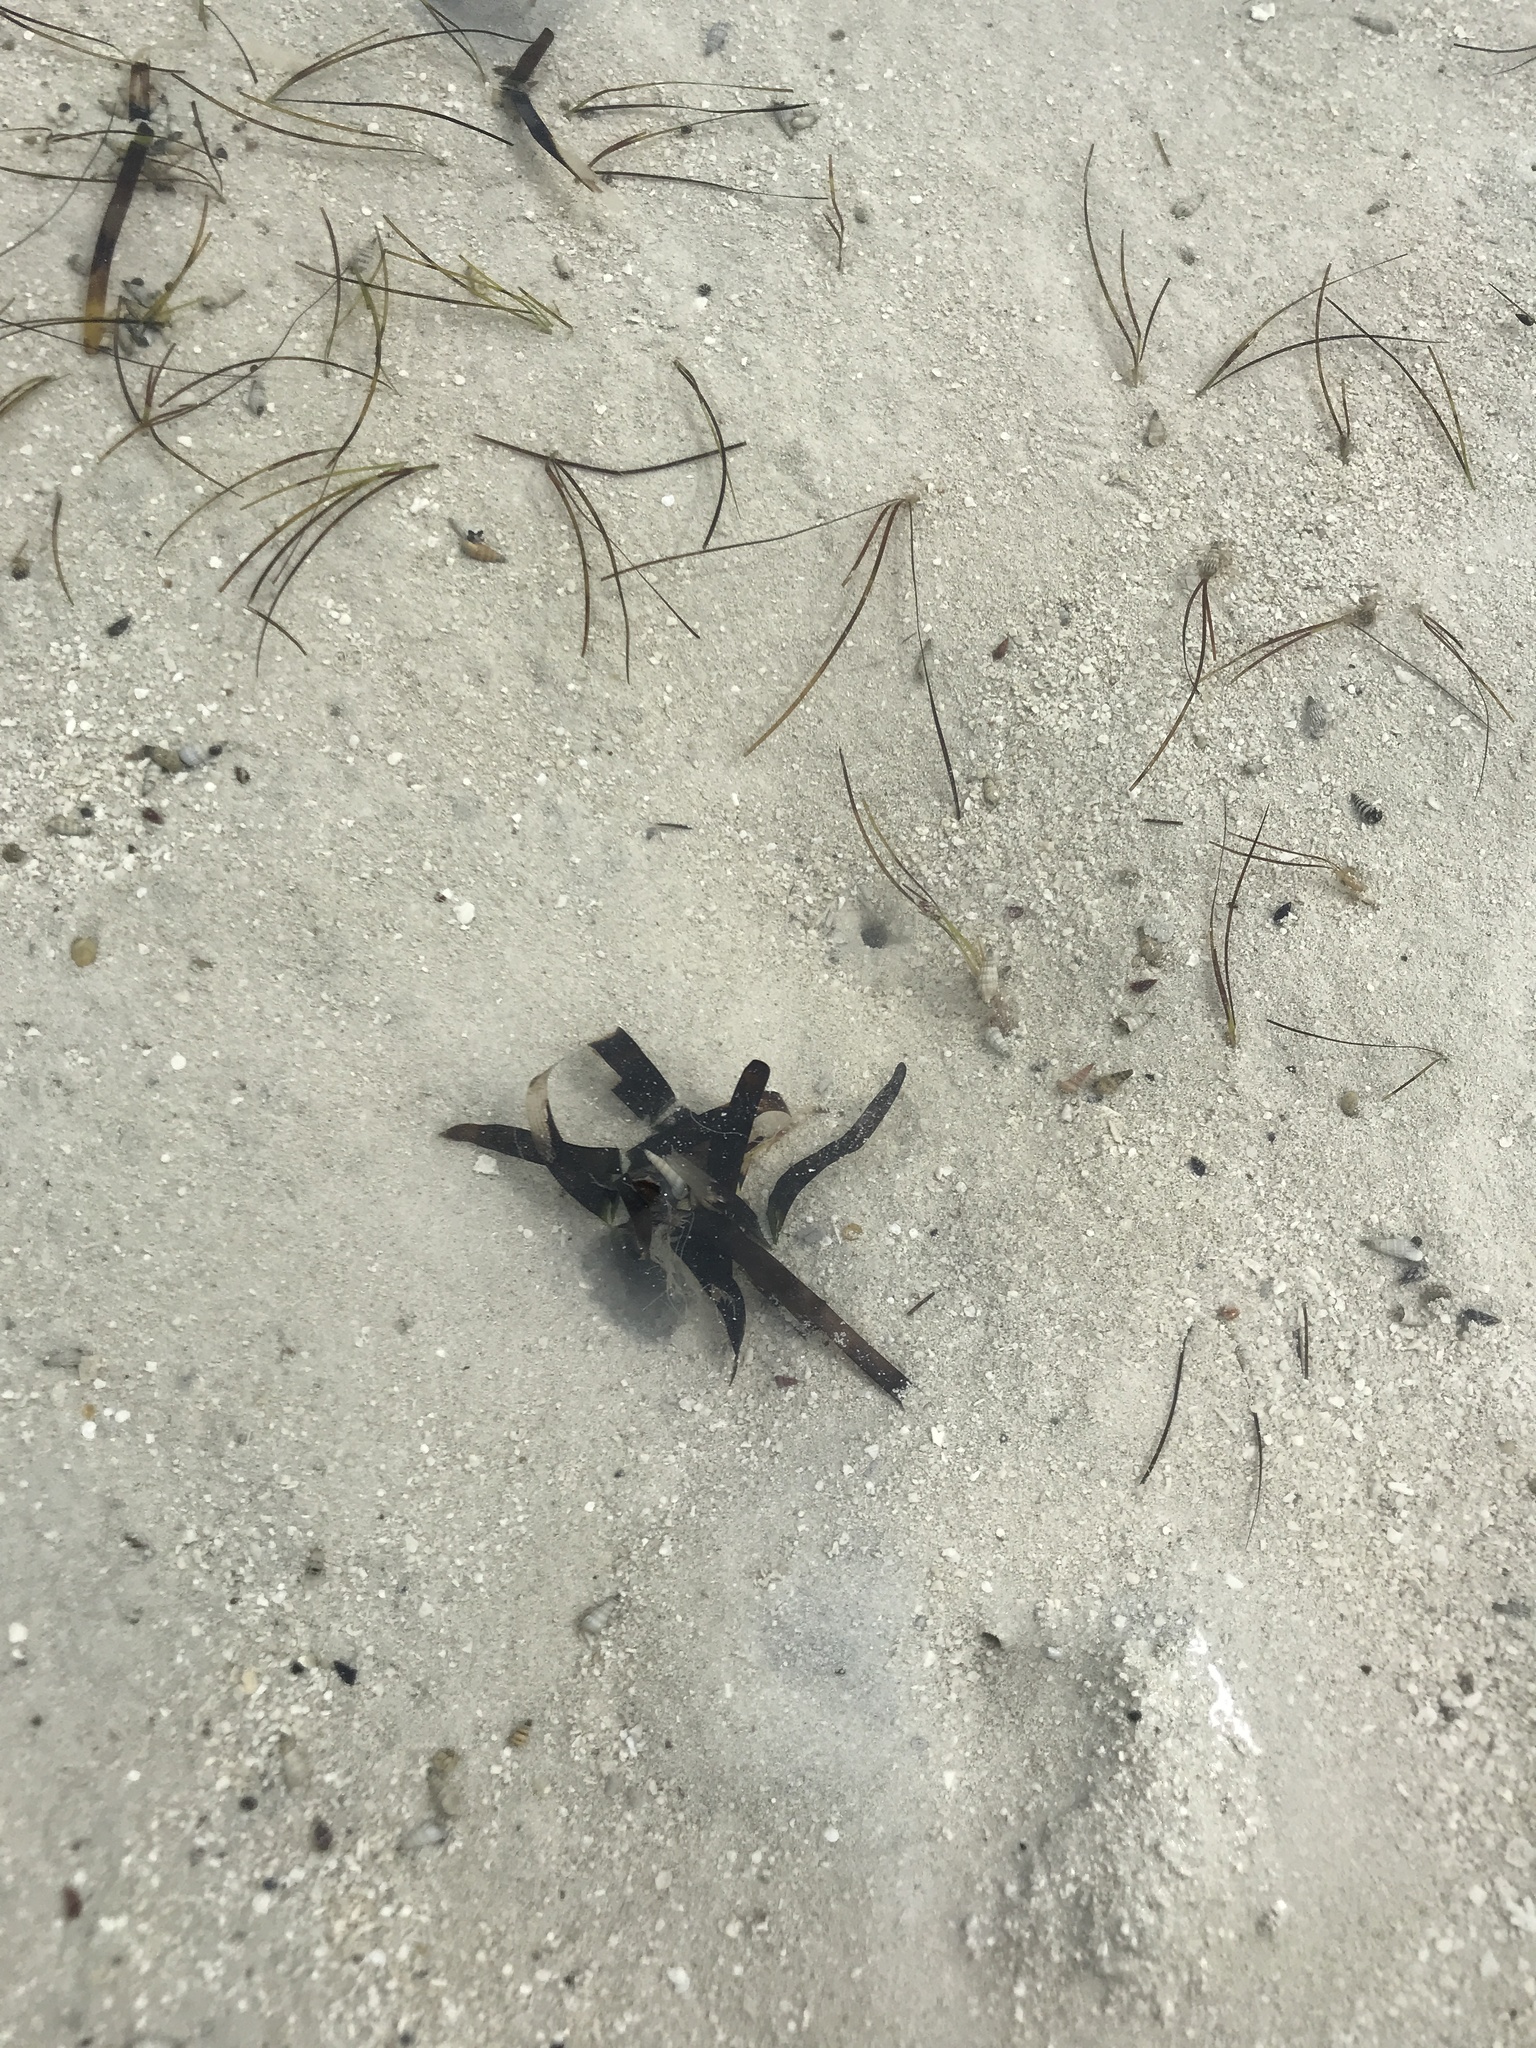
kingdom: Plantae
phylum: Tracheophyta
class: Liliopsida
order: Alismatales
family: Hydrocharitaceae
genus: Thalassia
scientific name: Thalassia testudinum
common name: Species code: tt
